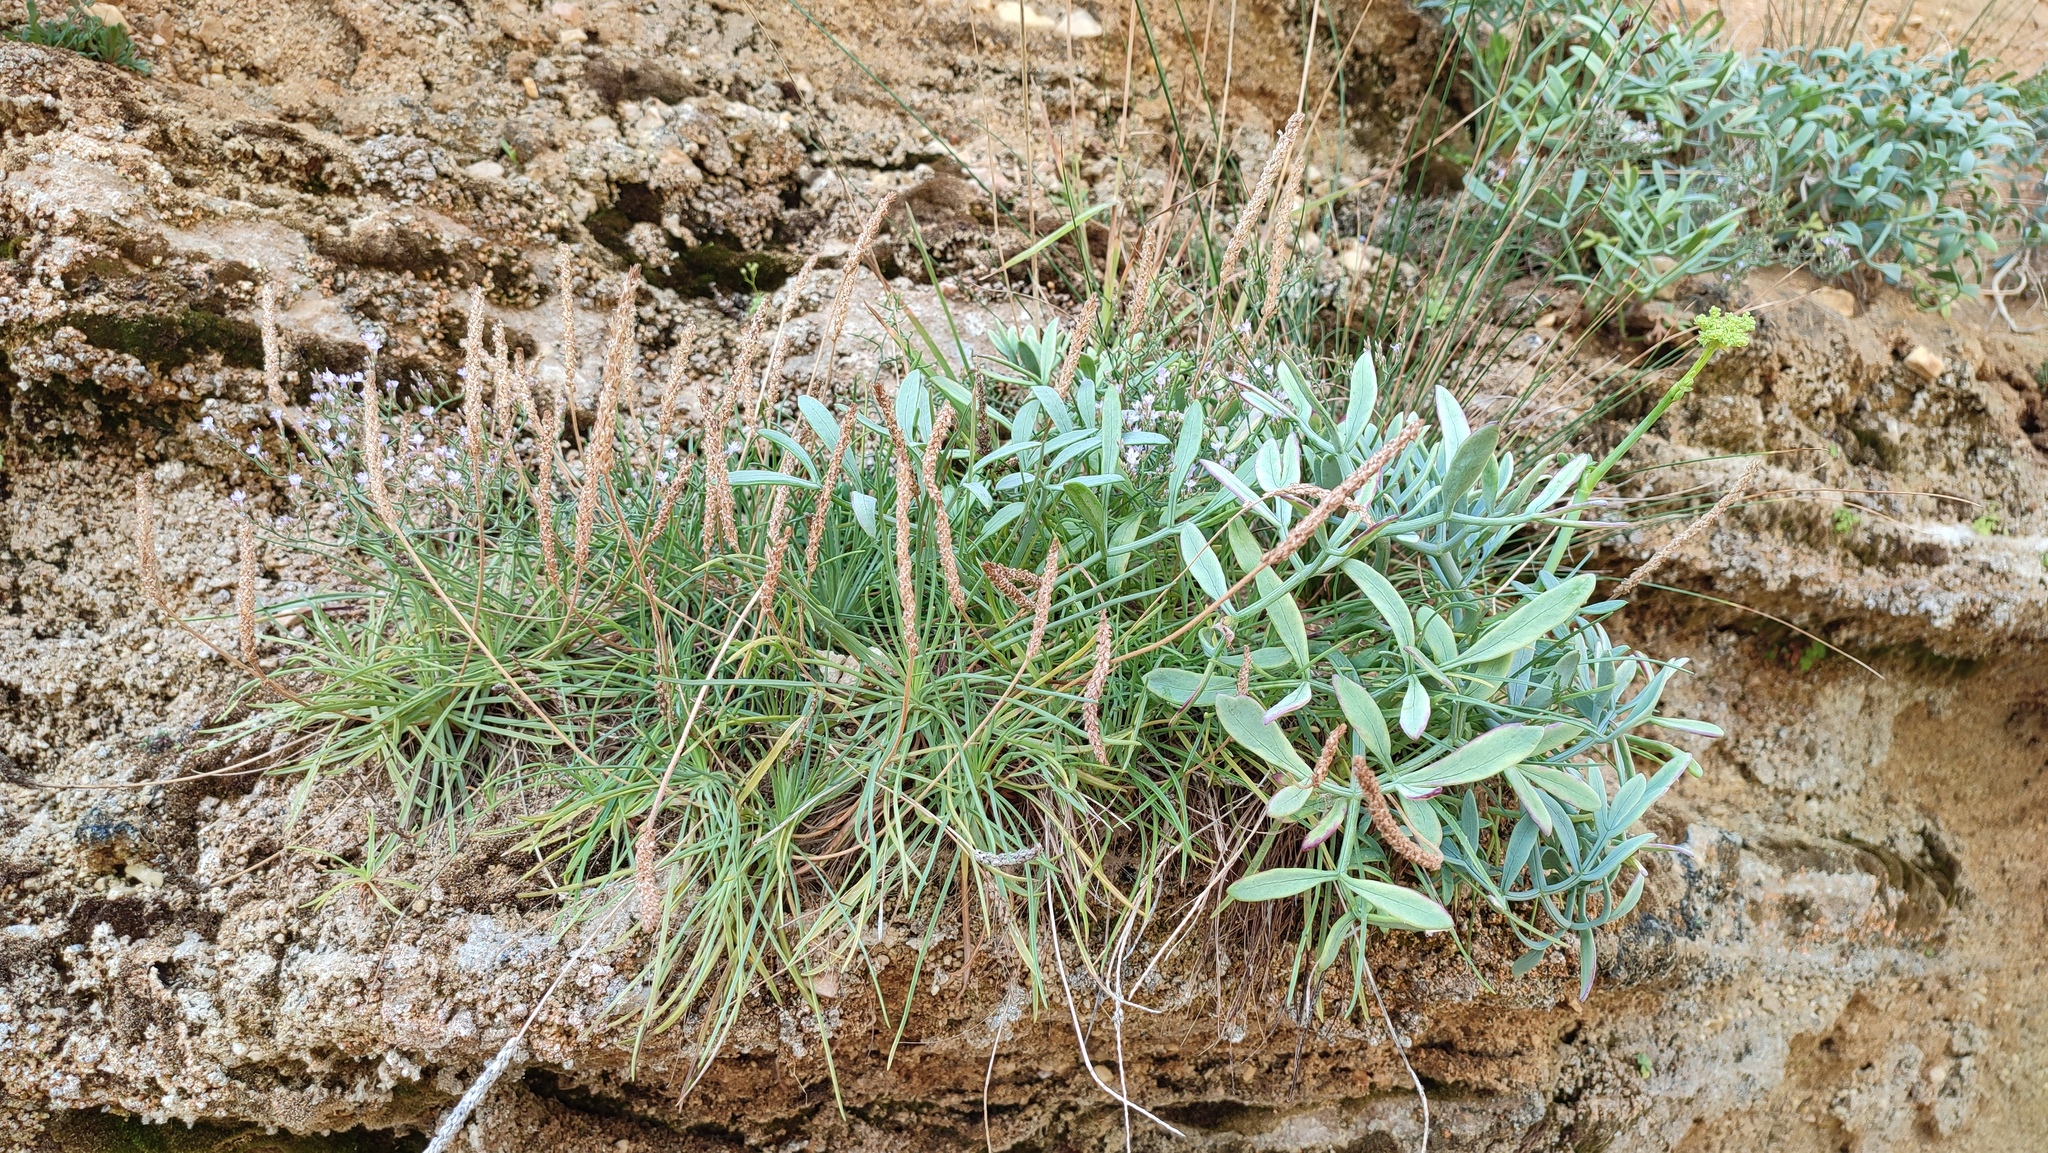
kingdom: Plantae
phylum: Tracheophyta
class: Magnoliopsida
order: Lamiales
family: Plantaginaceae
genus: Plantago
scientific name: Plantago maritima
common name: Sea plantain
